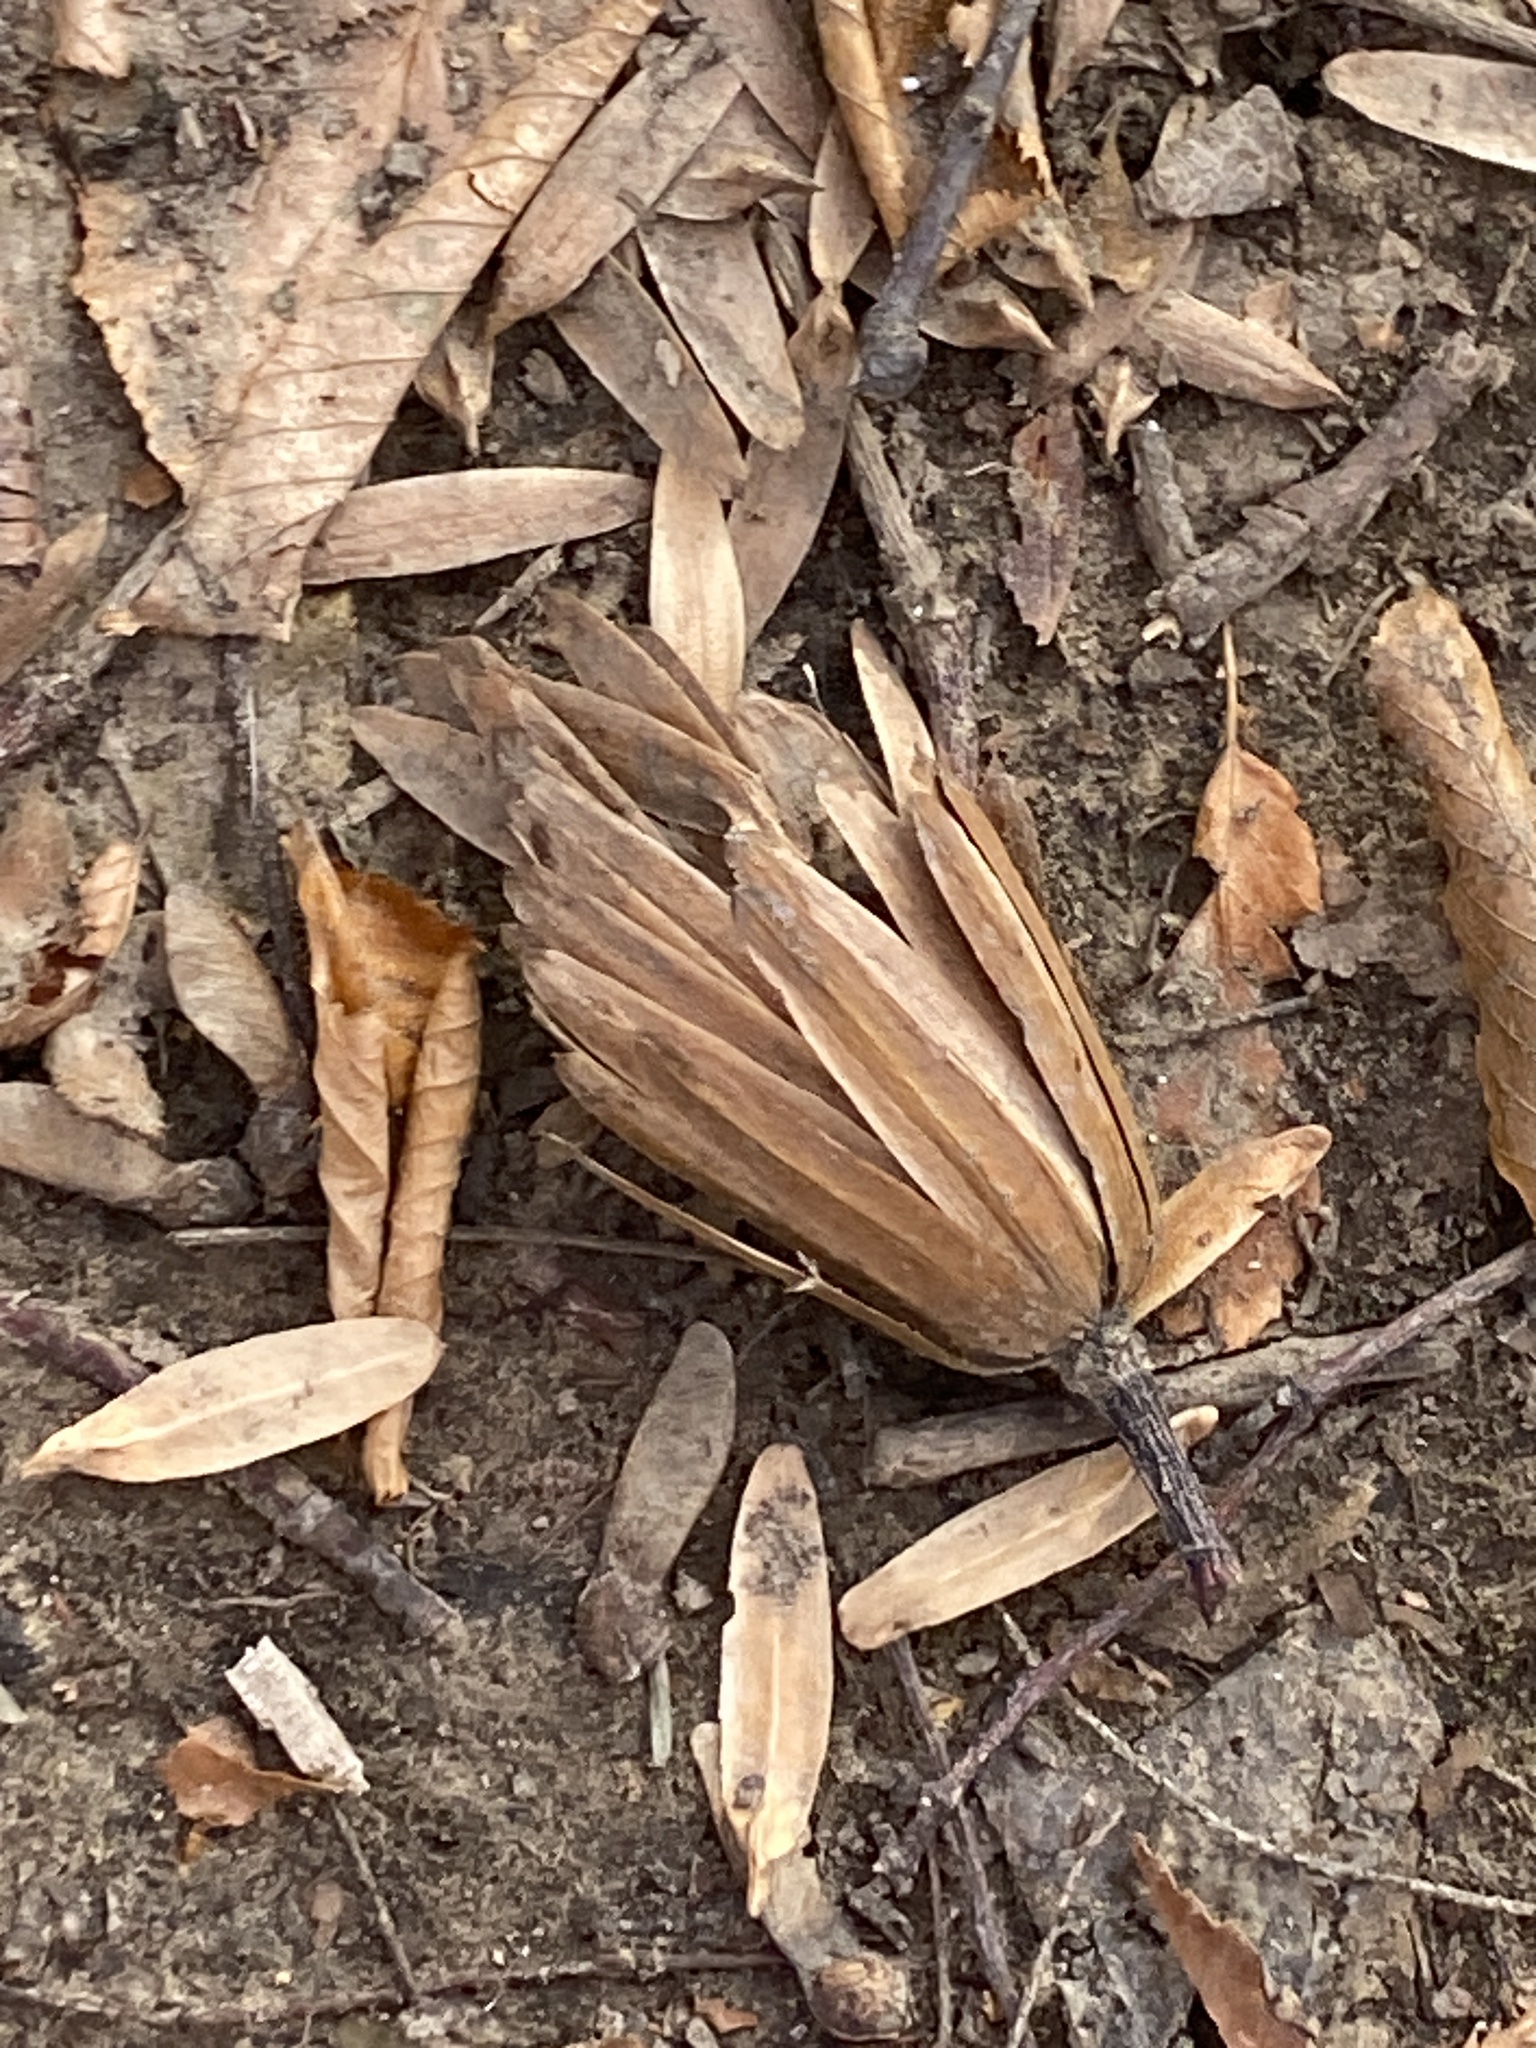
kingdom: Plantae
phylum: Tracheophyta
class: Magnoliopsida
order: Magnoliales
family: Magnoliaceae
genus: Liriodendron
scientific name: Liriodendron tulipifera
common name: Tulip tree
